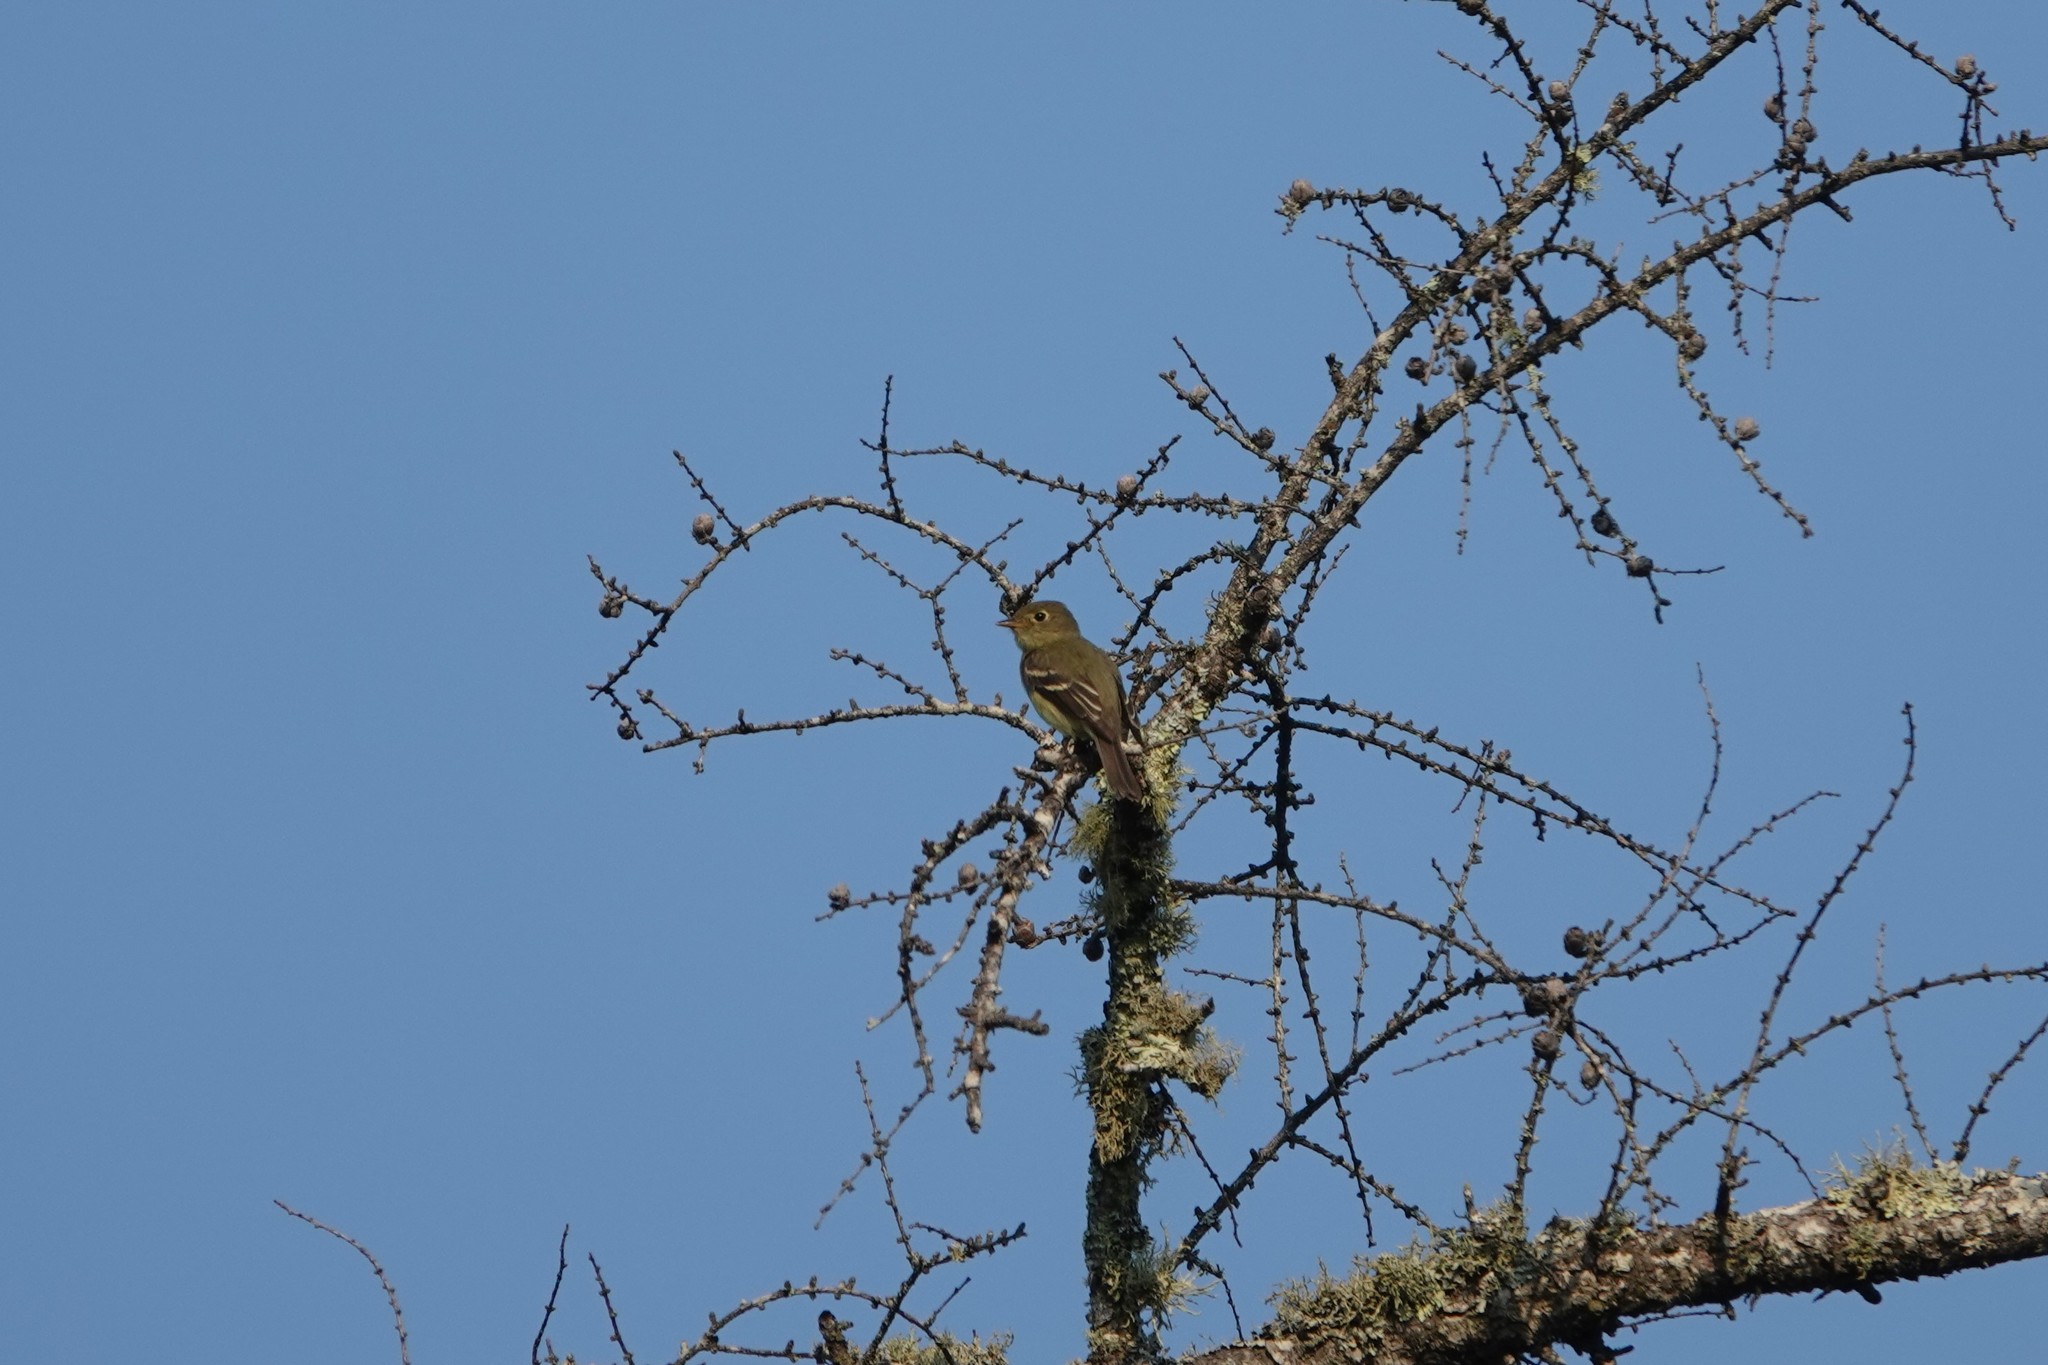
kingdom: Animalia
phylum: Chordata
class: Aves
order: Passeriformes
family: Tyrannidae
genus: Empidonax
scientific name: Empidonax flaviventris
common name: Yellow-bellied flycatcher
